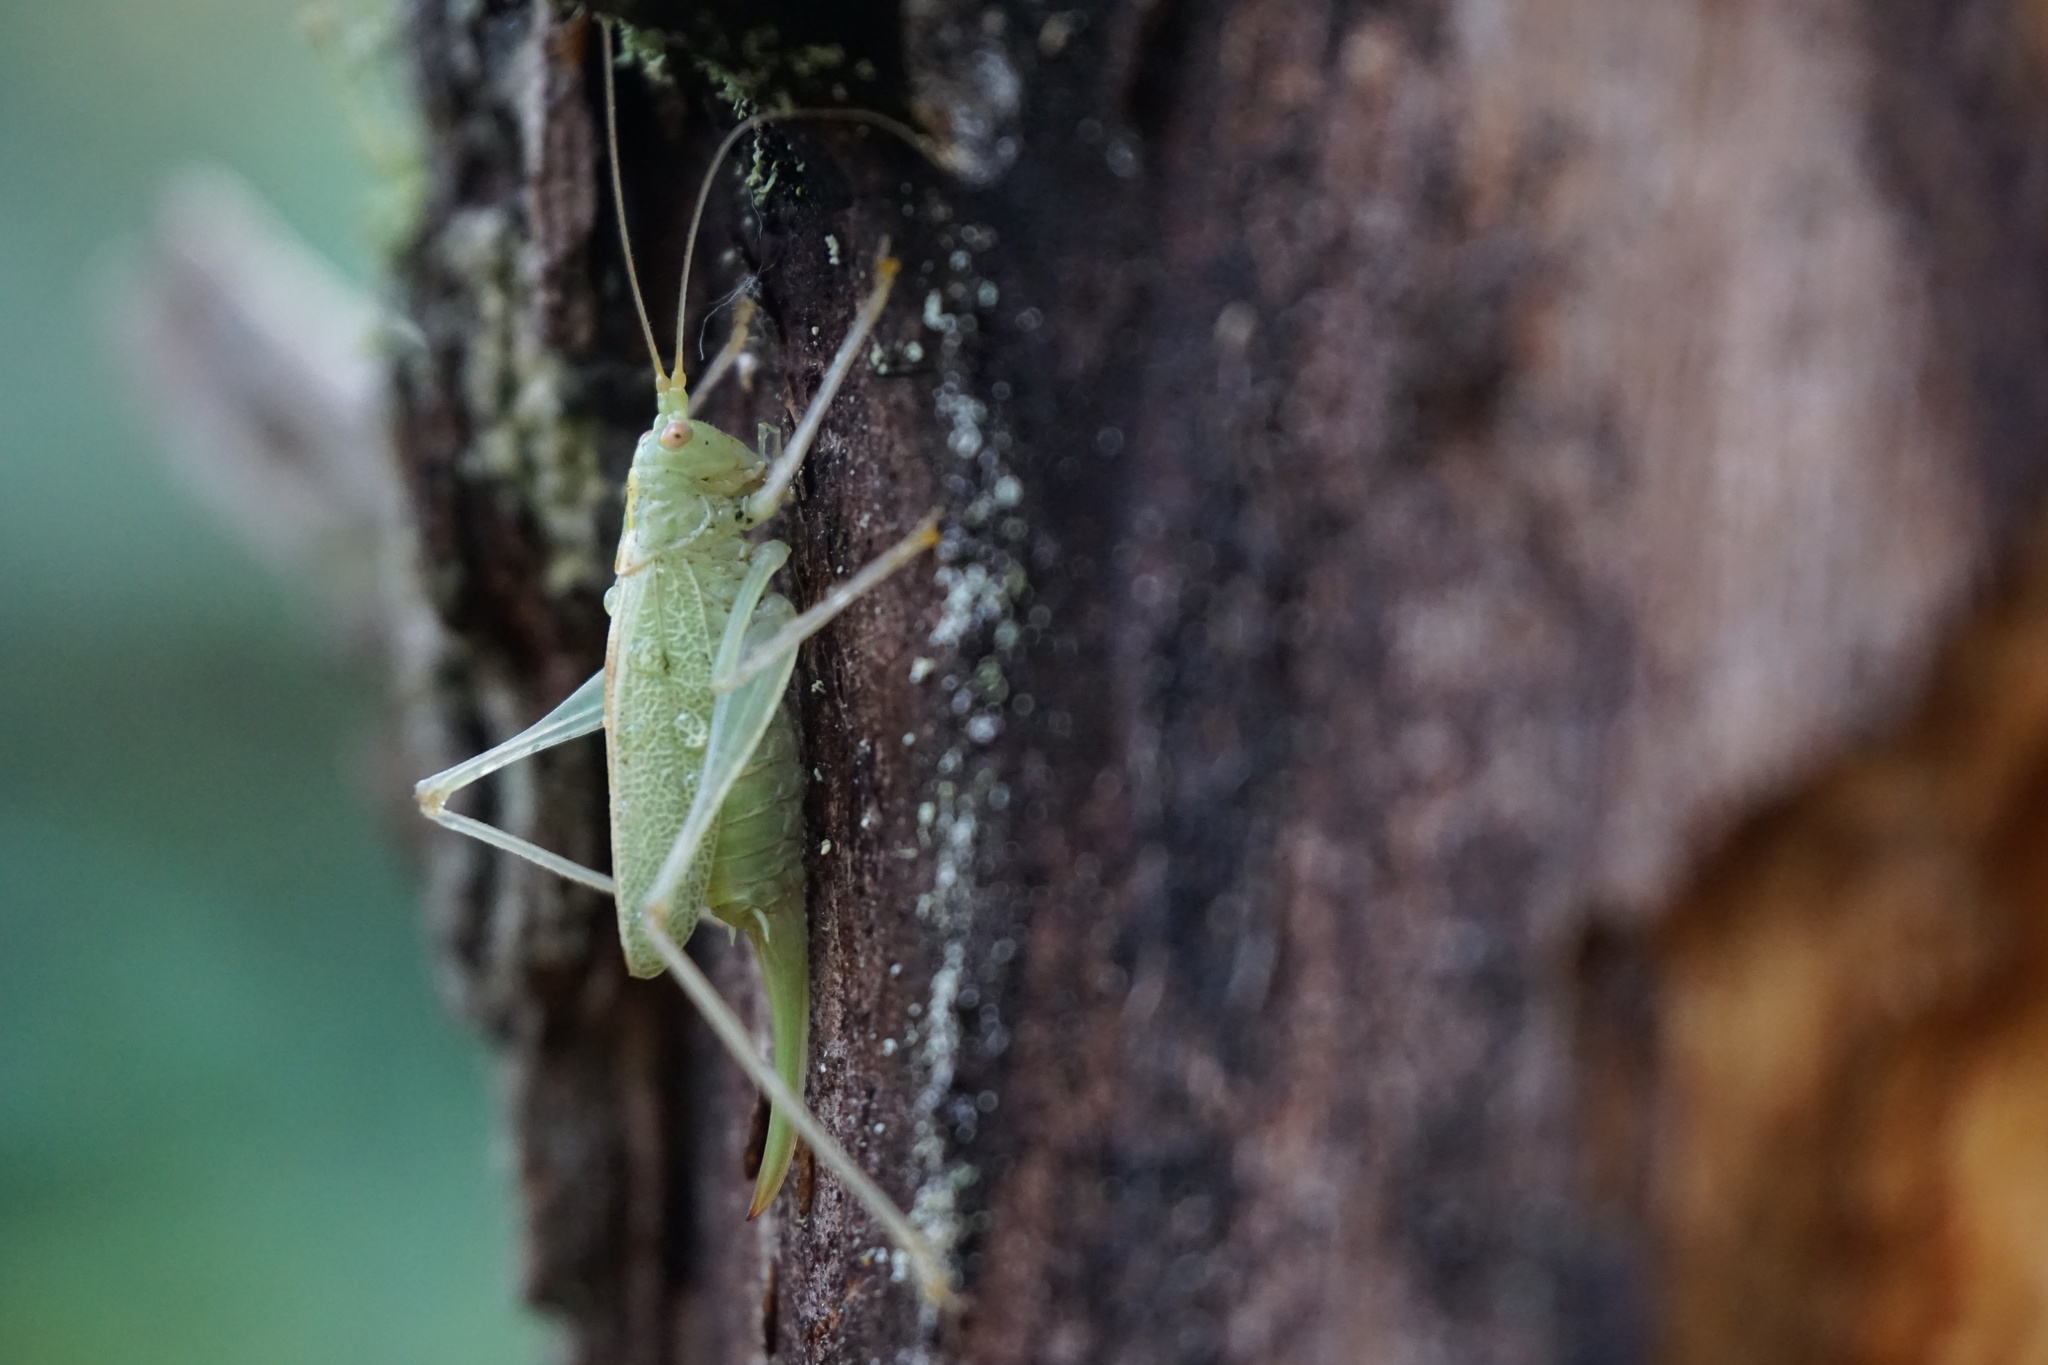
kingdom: Animalia
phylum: Arthropoda
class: Insecta
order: Orthoptera
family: Tettigoniidae
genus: Meconema
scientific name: Meconema thalassinum
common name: Oak bush-cricket
